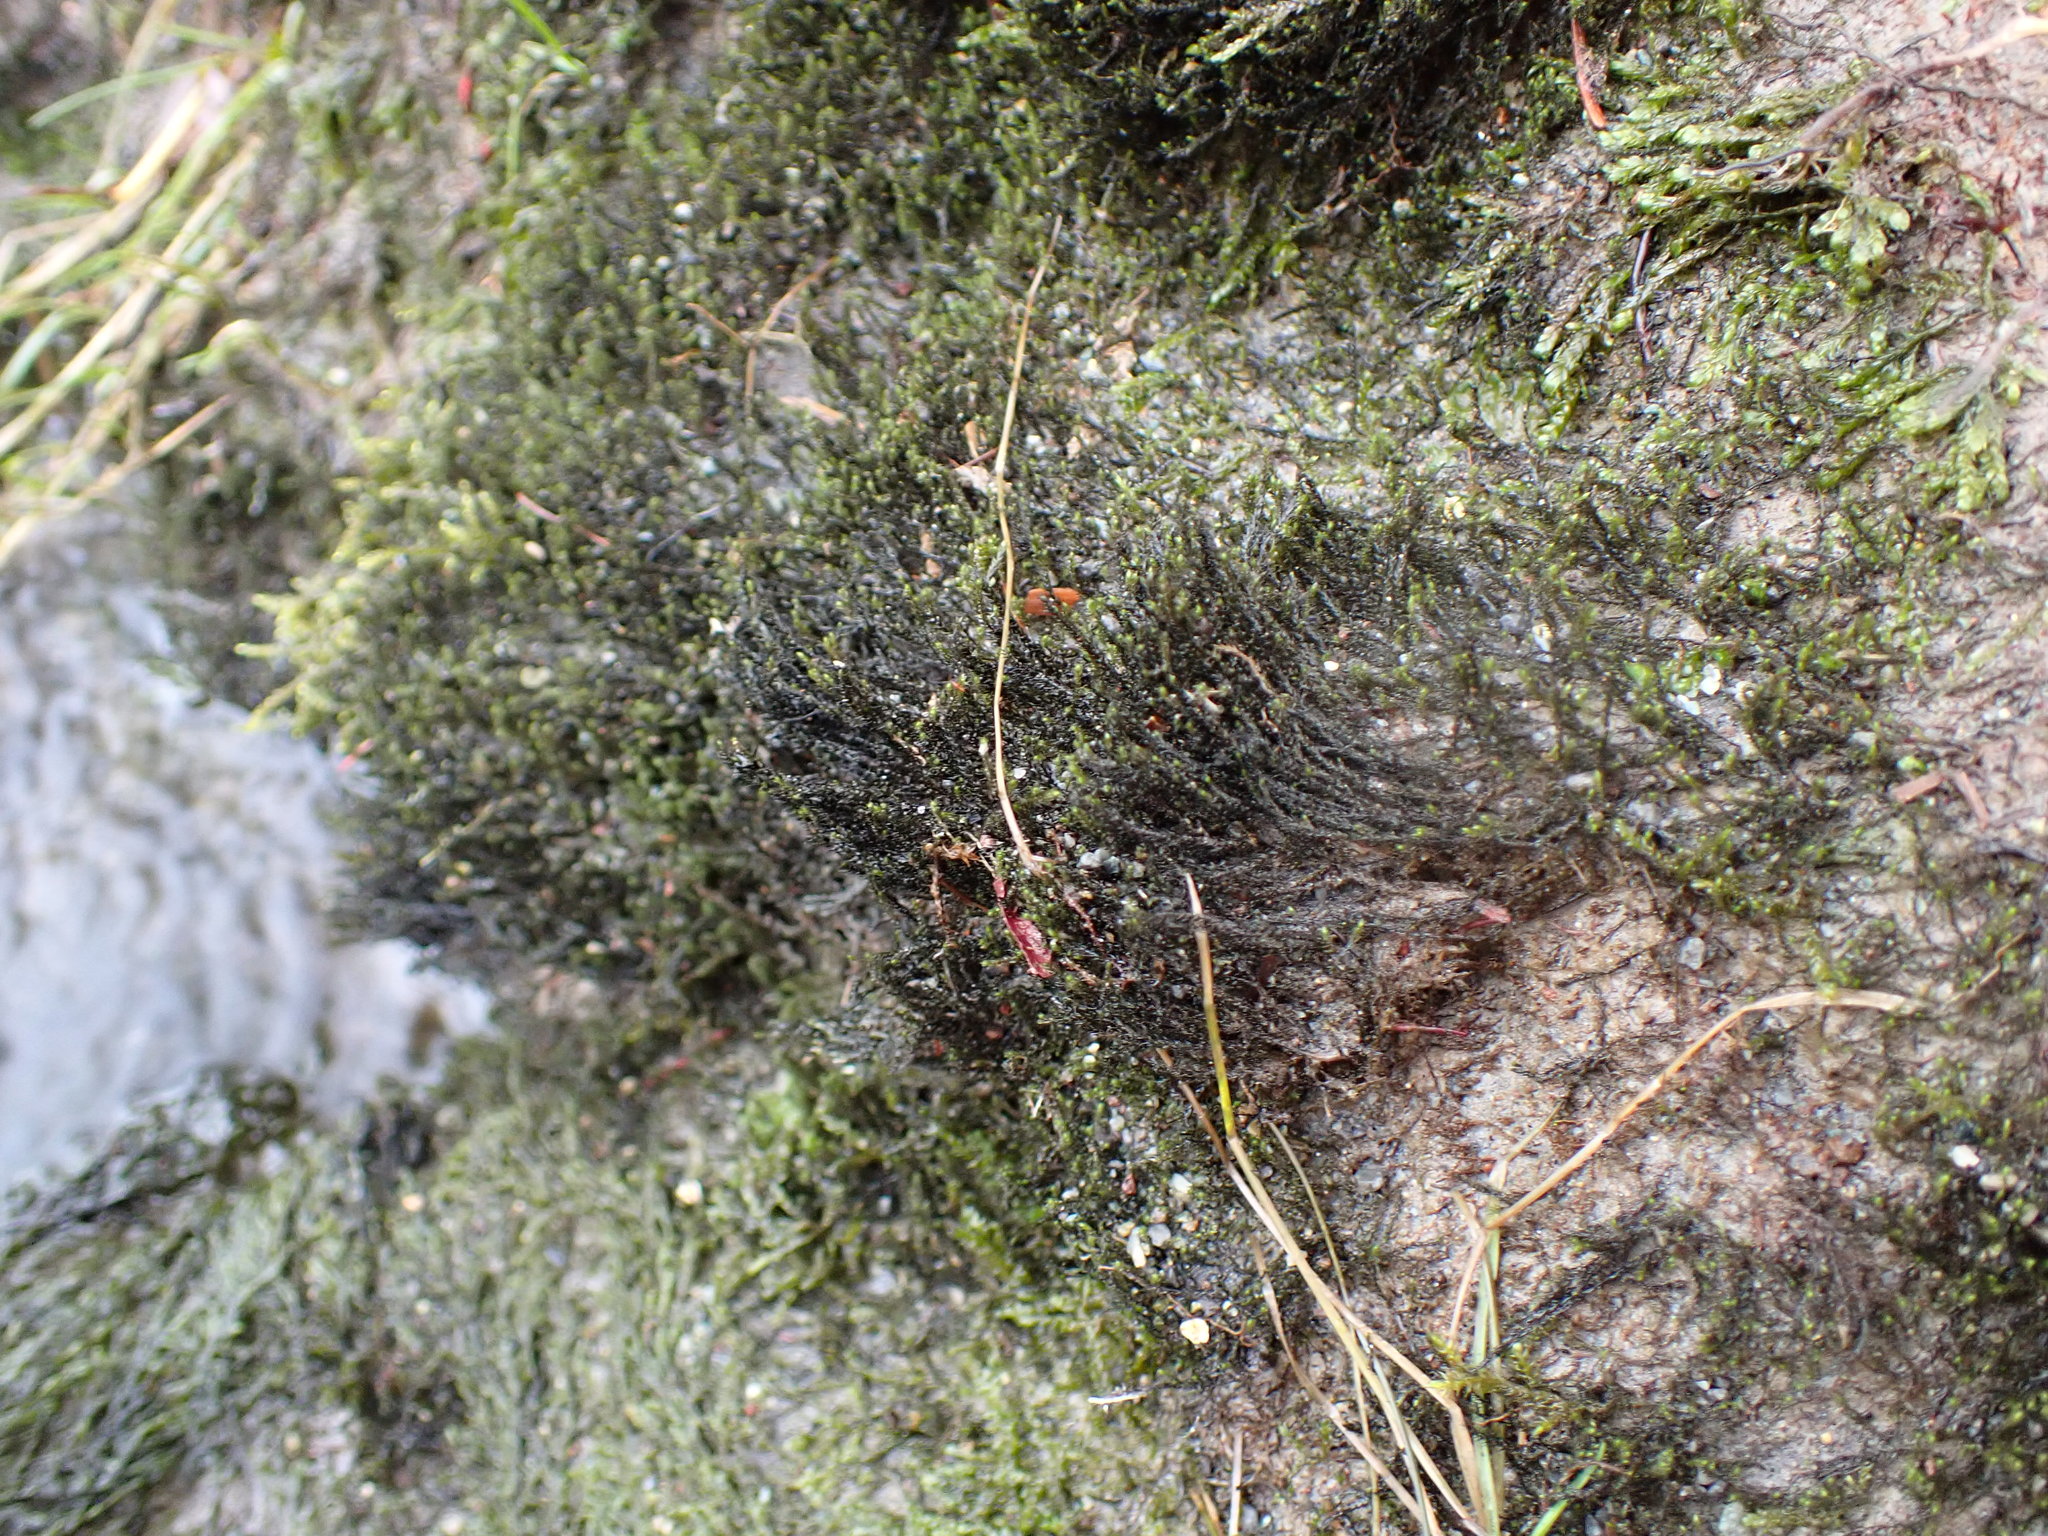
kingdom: Plantae
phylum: Bryophyta
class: Bryopsida
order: Hypnales
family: Amblystegiaceae
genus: Hygrohypnum
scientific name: Hygrohypnum bestii
